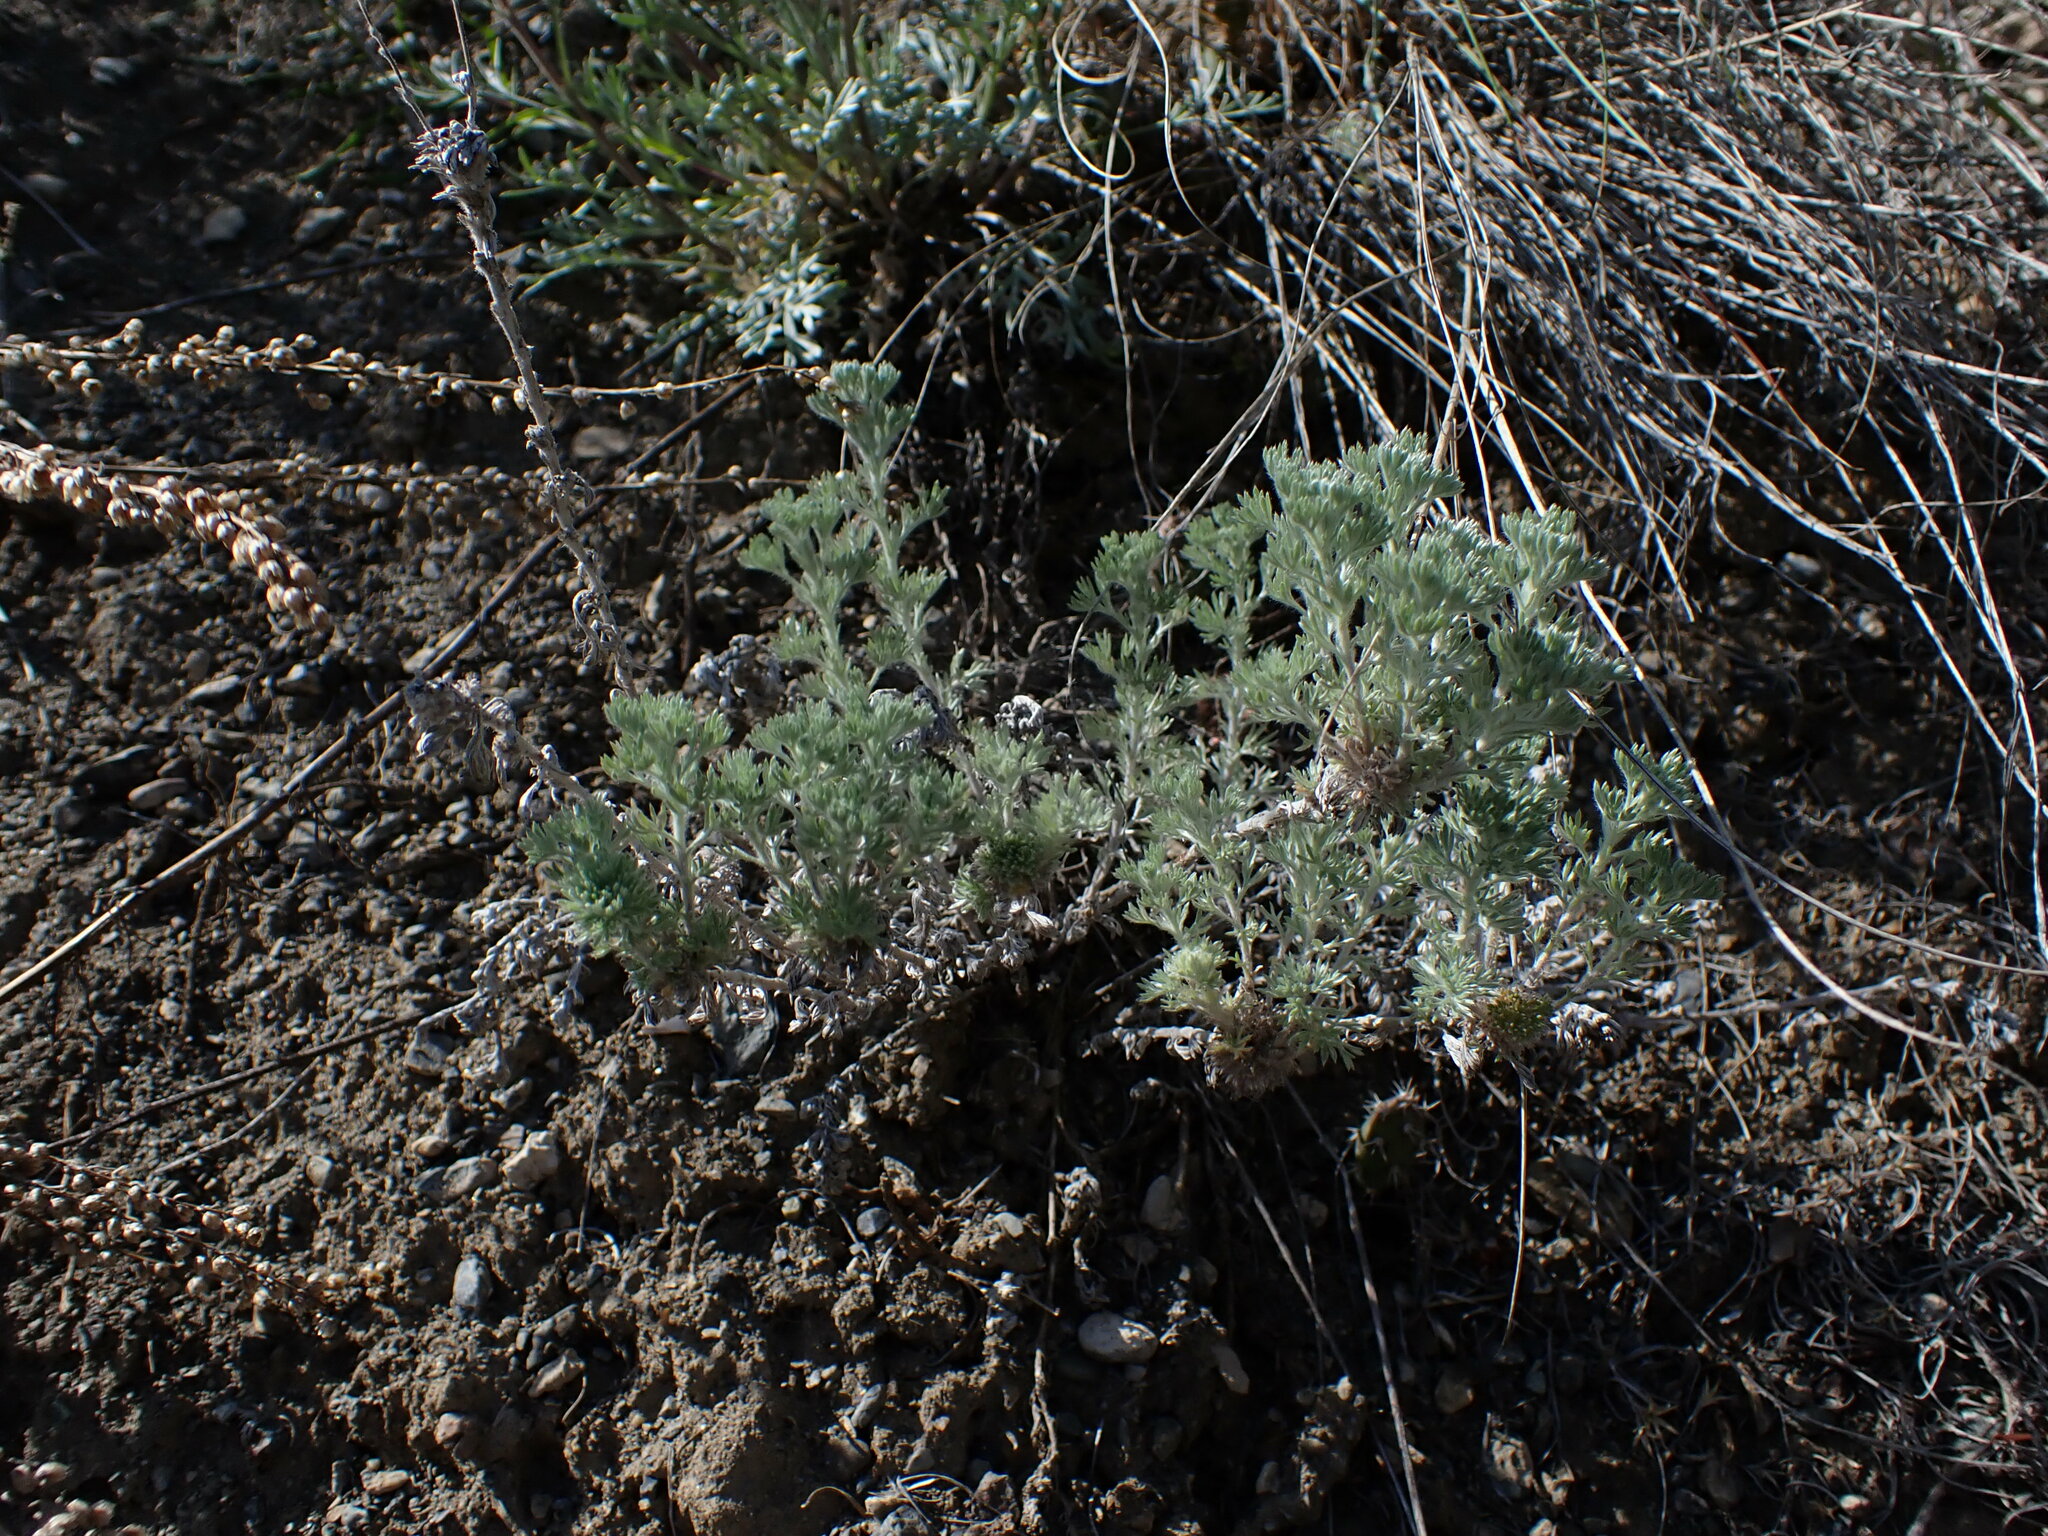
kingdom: Plantae
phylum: Tracheophyta
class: Magnoliopsida
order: Asterales
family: Asteraceae
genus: Artemisia
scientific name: Artemisia frigida
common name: Prairie sagewort
